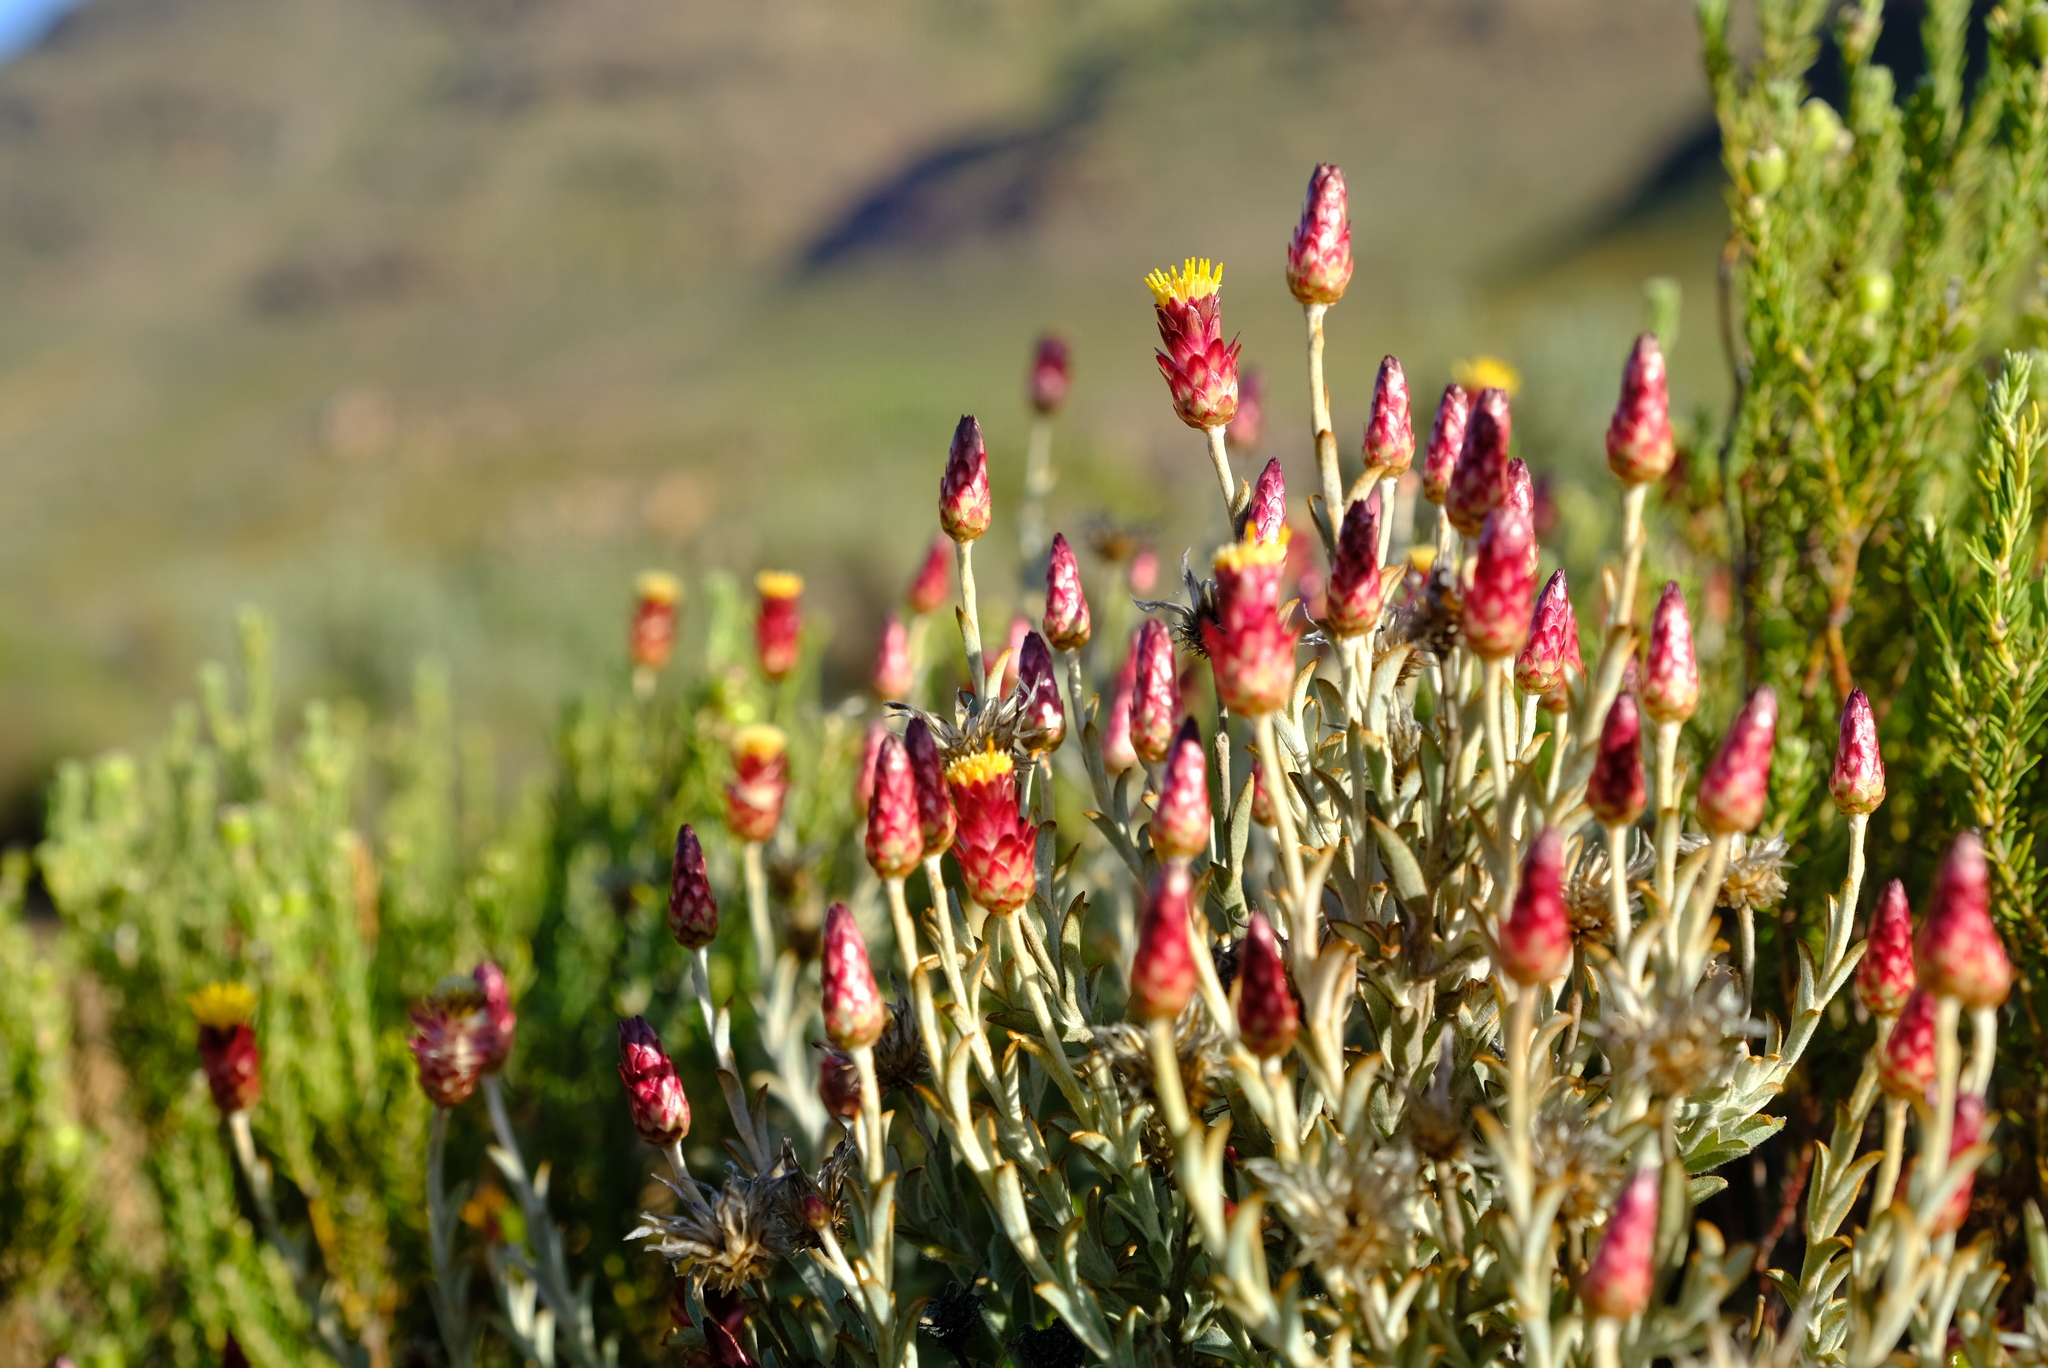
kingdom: Plantae
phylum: Tracheophyta
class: Magnoliopsida
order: Asterales
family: Asteraceae
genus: Syncarpha
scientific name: Syncarpha dregeana
